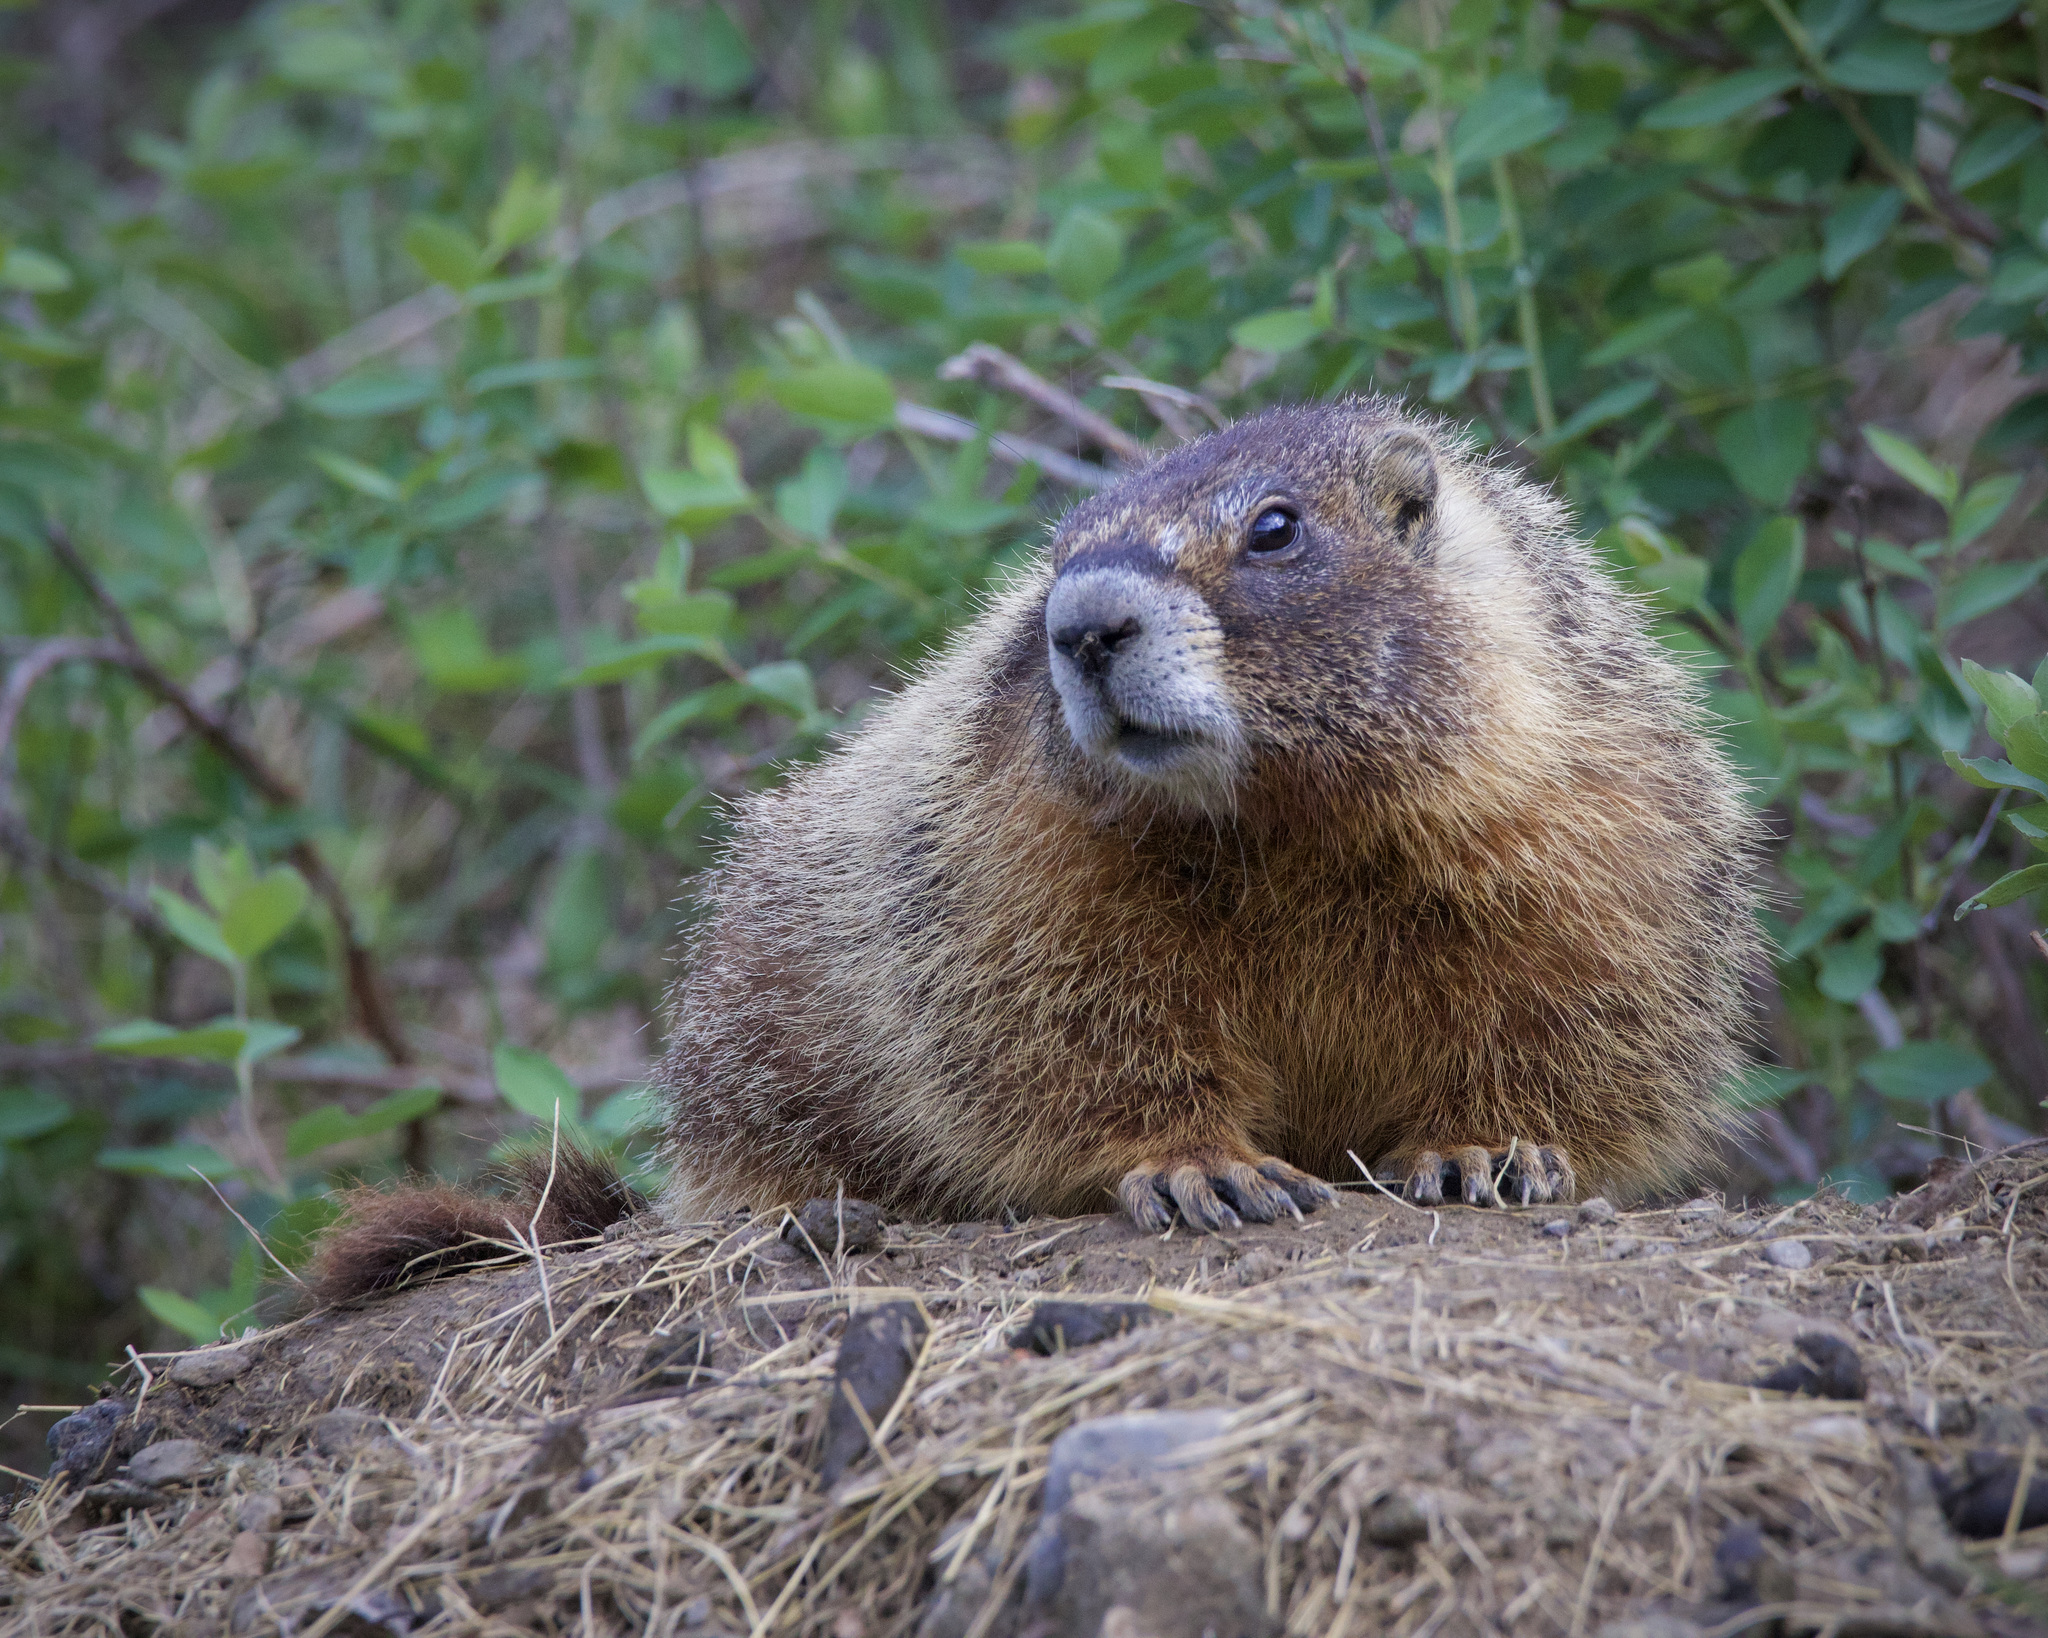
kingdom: Animalia
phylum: Chordata
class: Mammalia
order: Rodentia
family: Sciuridae
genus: Marmota
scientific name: Marmota flaviventris
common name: Yellow-bellied marmot
